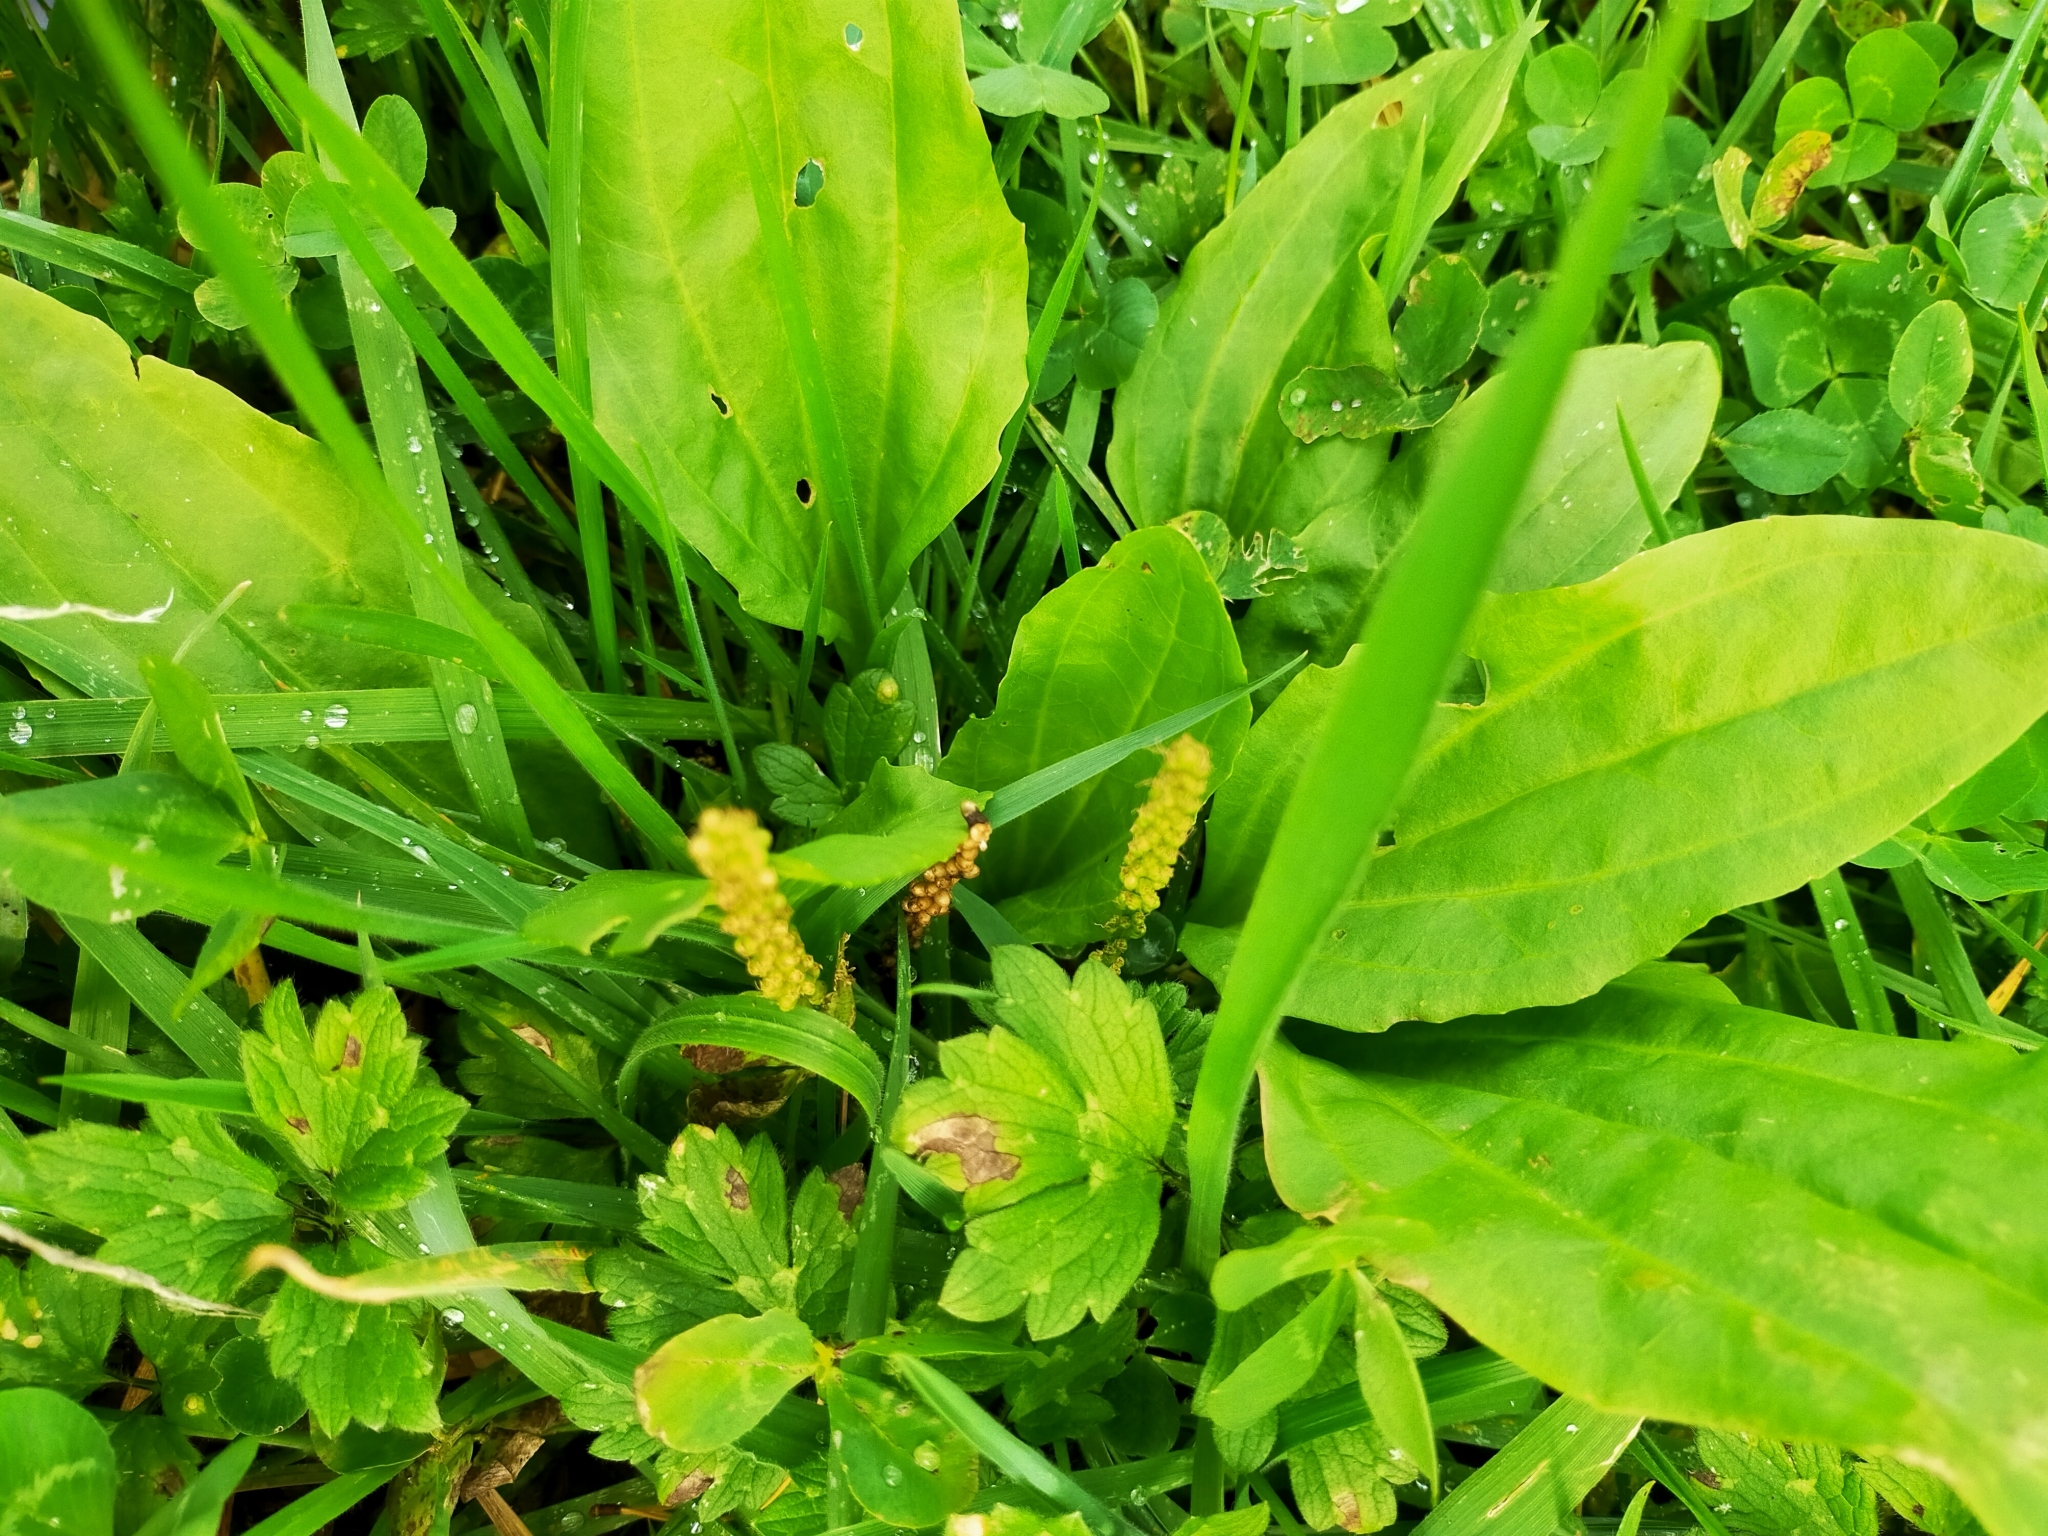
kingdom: Plantae
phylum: Tracheophyta
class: Magnoliopsida
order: Lamiales
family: Plantaginaceae
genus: Plantago
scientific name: Plantago major
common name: Common plantain
